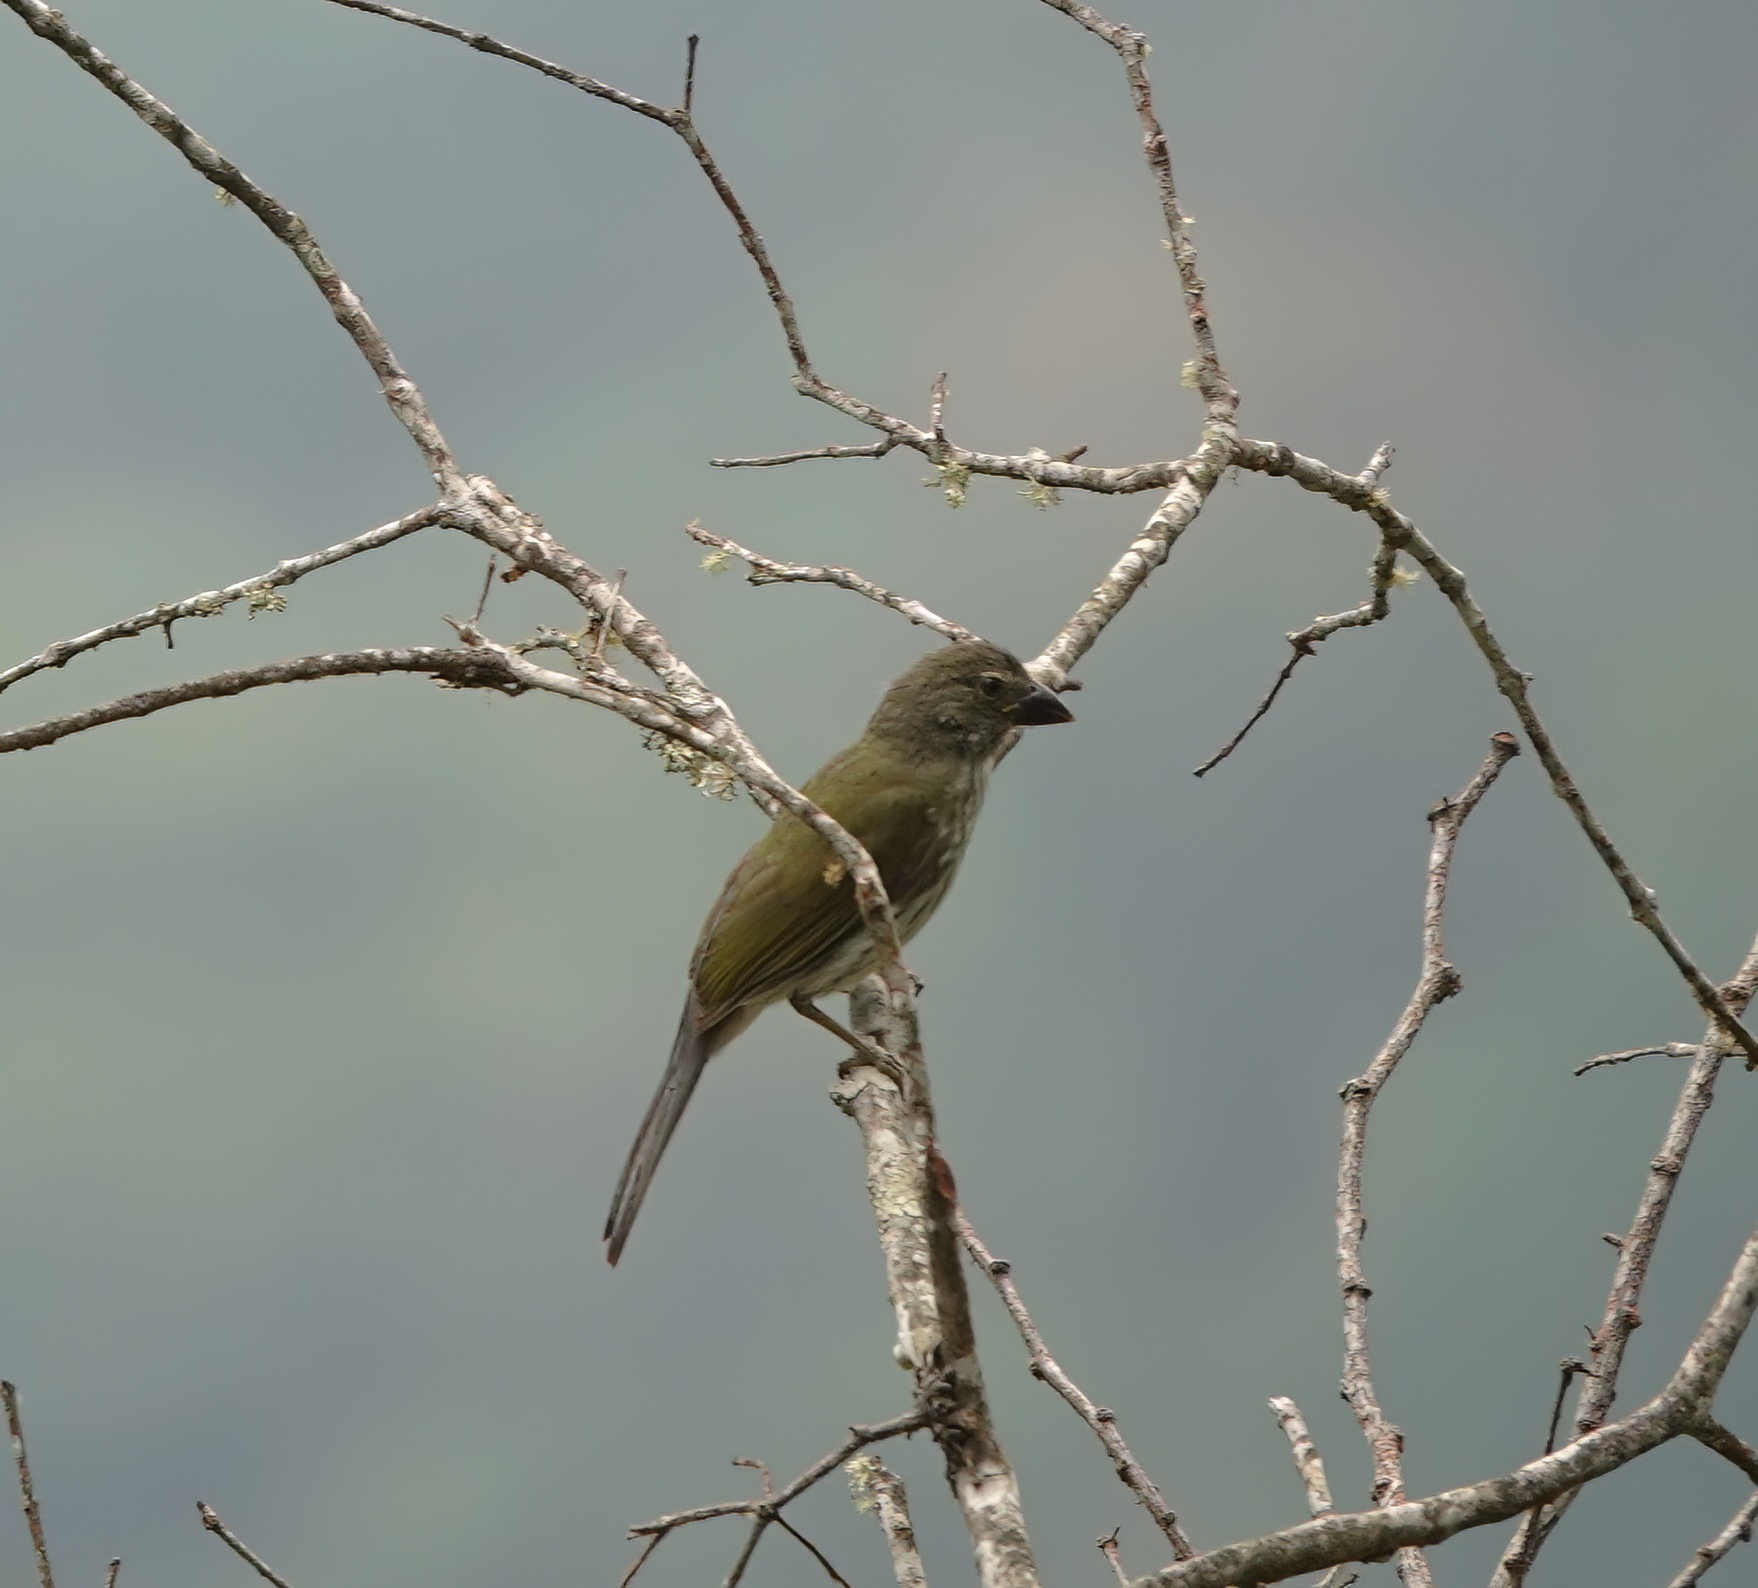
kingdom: Animalia
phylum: Chordata
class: Aves
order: Passeriformes
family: Thraupidae
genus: Saltator
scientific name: Saltator striatipectus
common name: Streaked saltator
